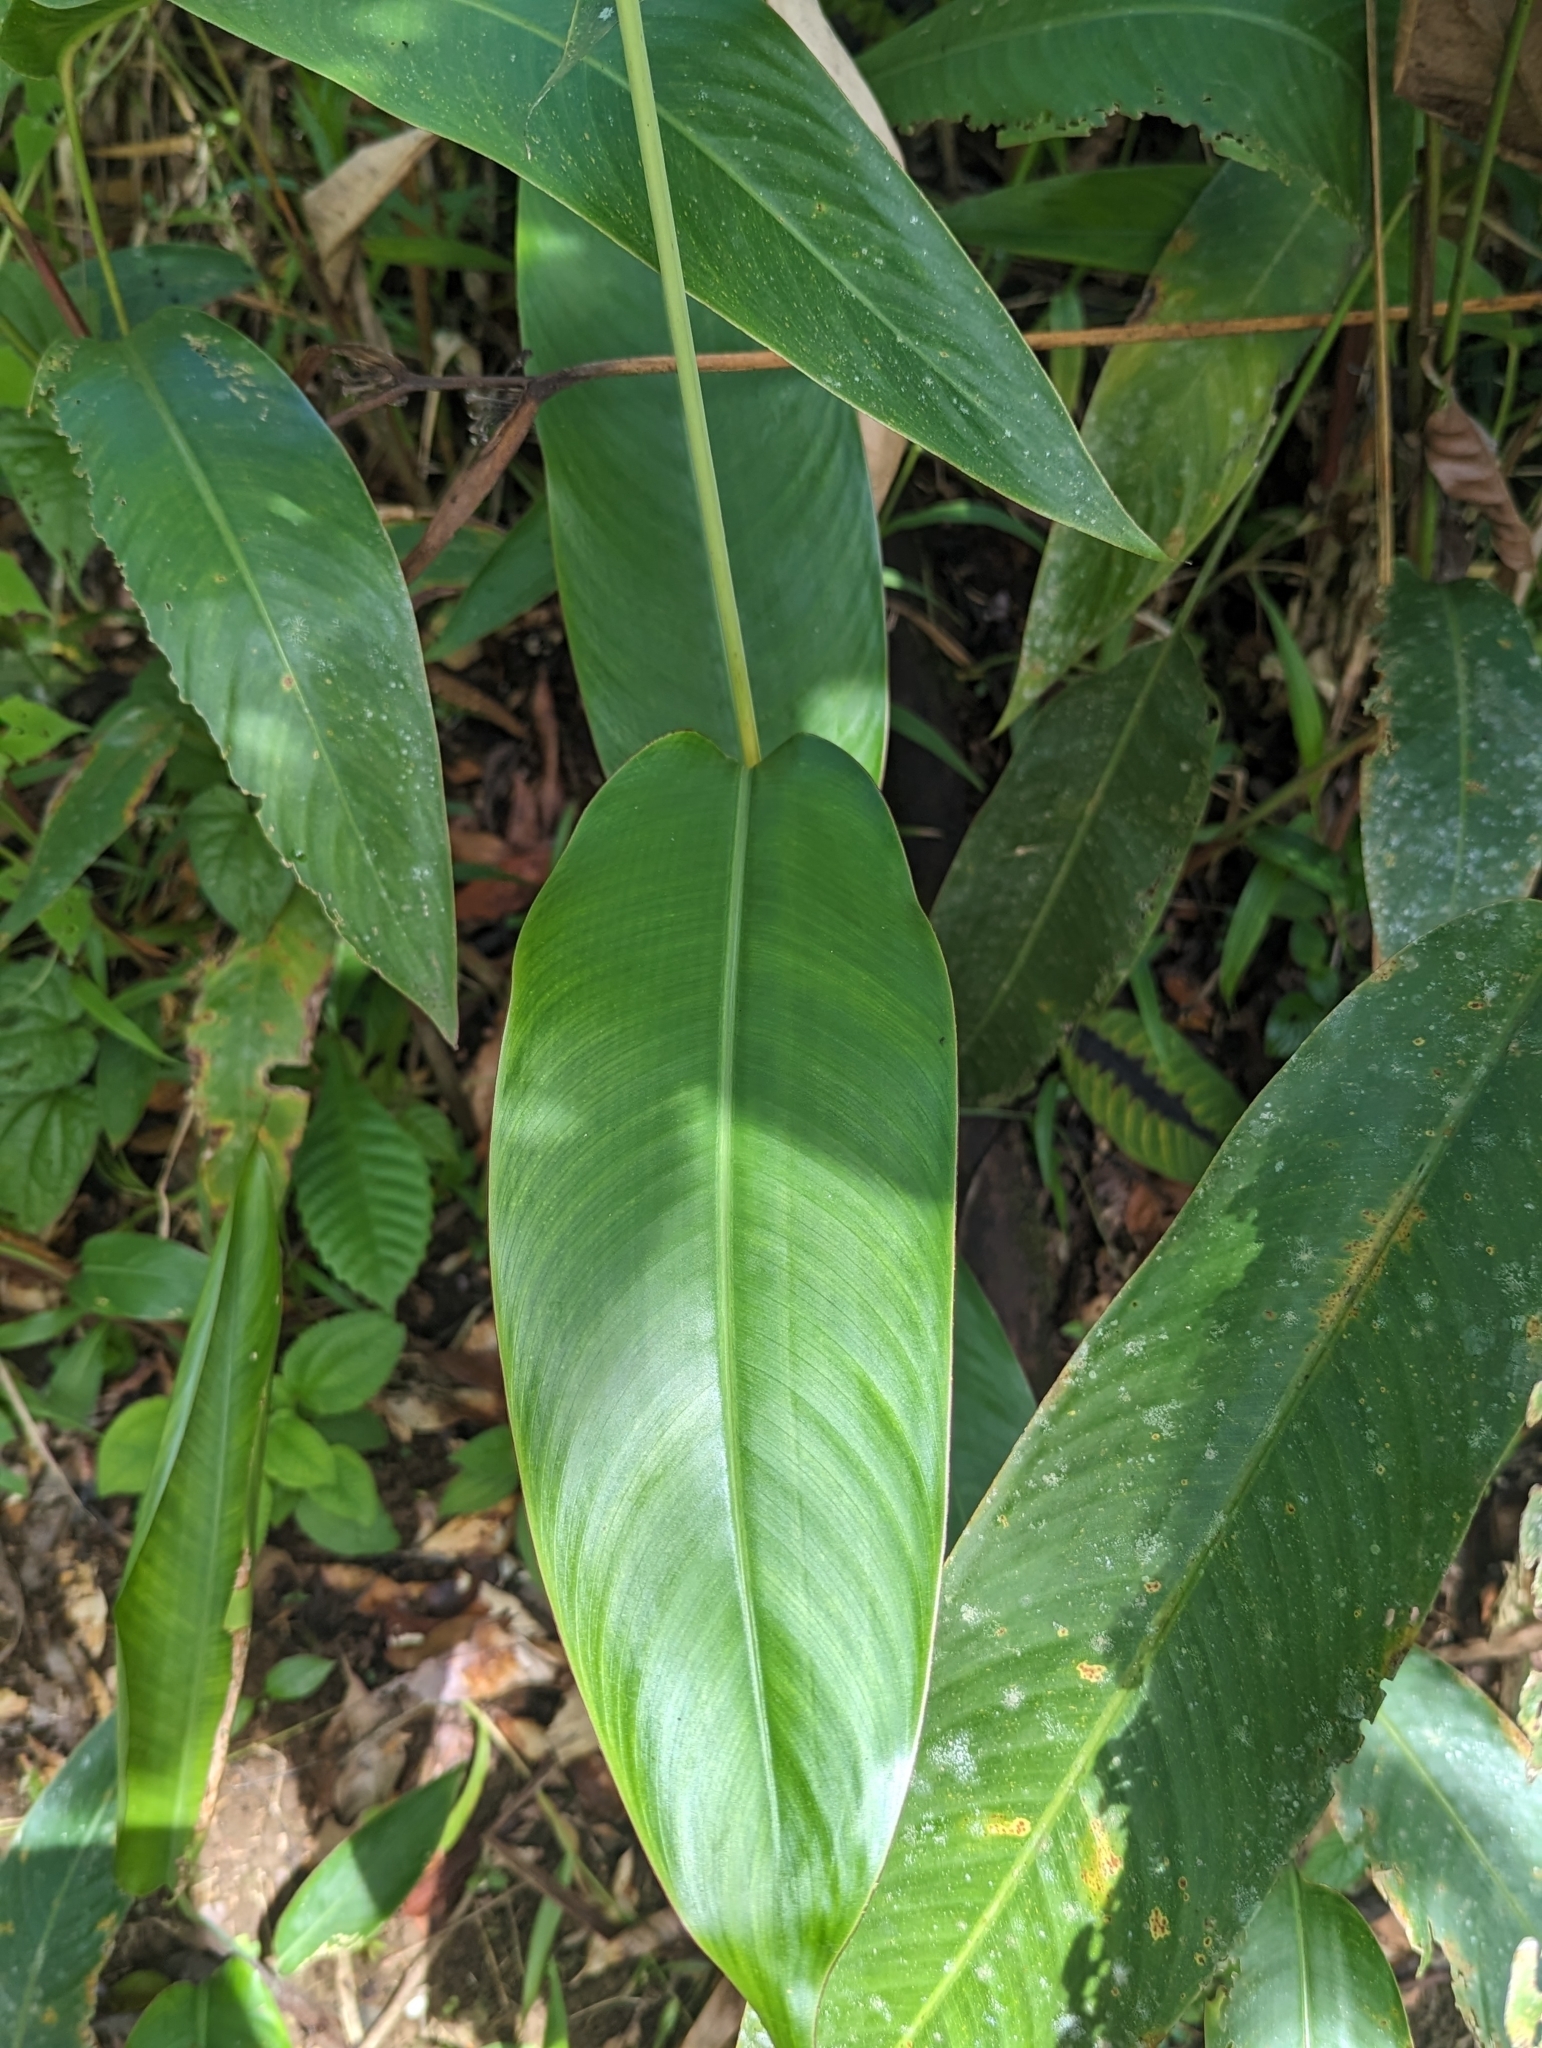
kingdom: Plantae
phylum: Tracheophyta
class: Liliopsida
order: Zingiberales
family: Heliconiaceae
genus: Heliconia
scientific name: Heliconia psittacorum
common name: Parrot's-flower
